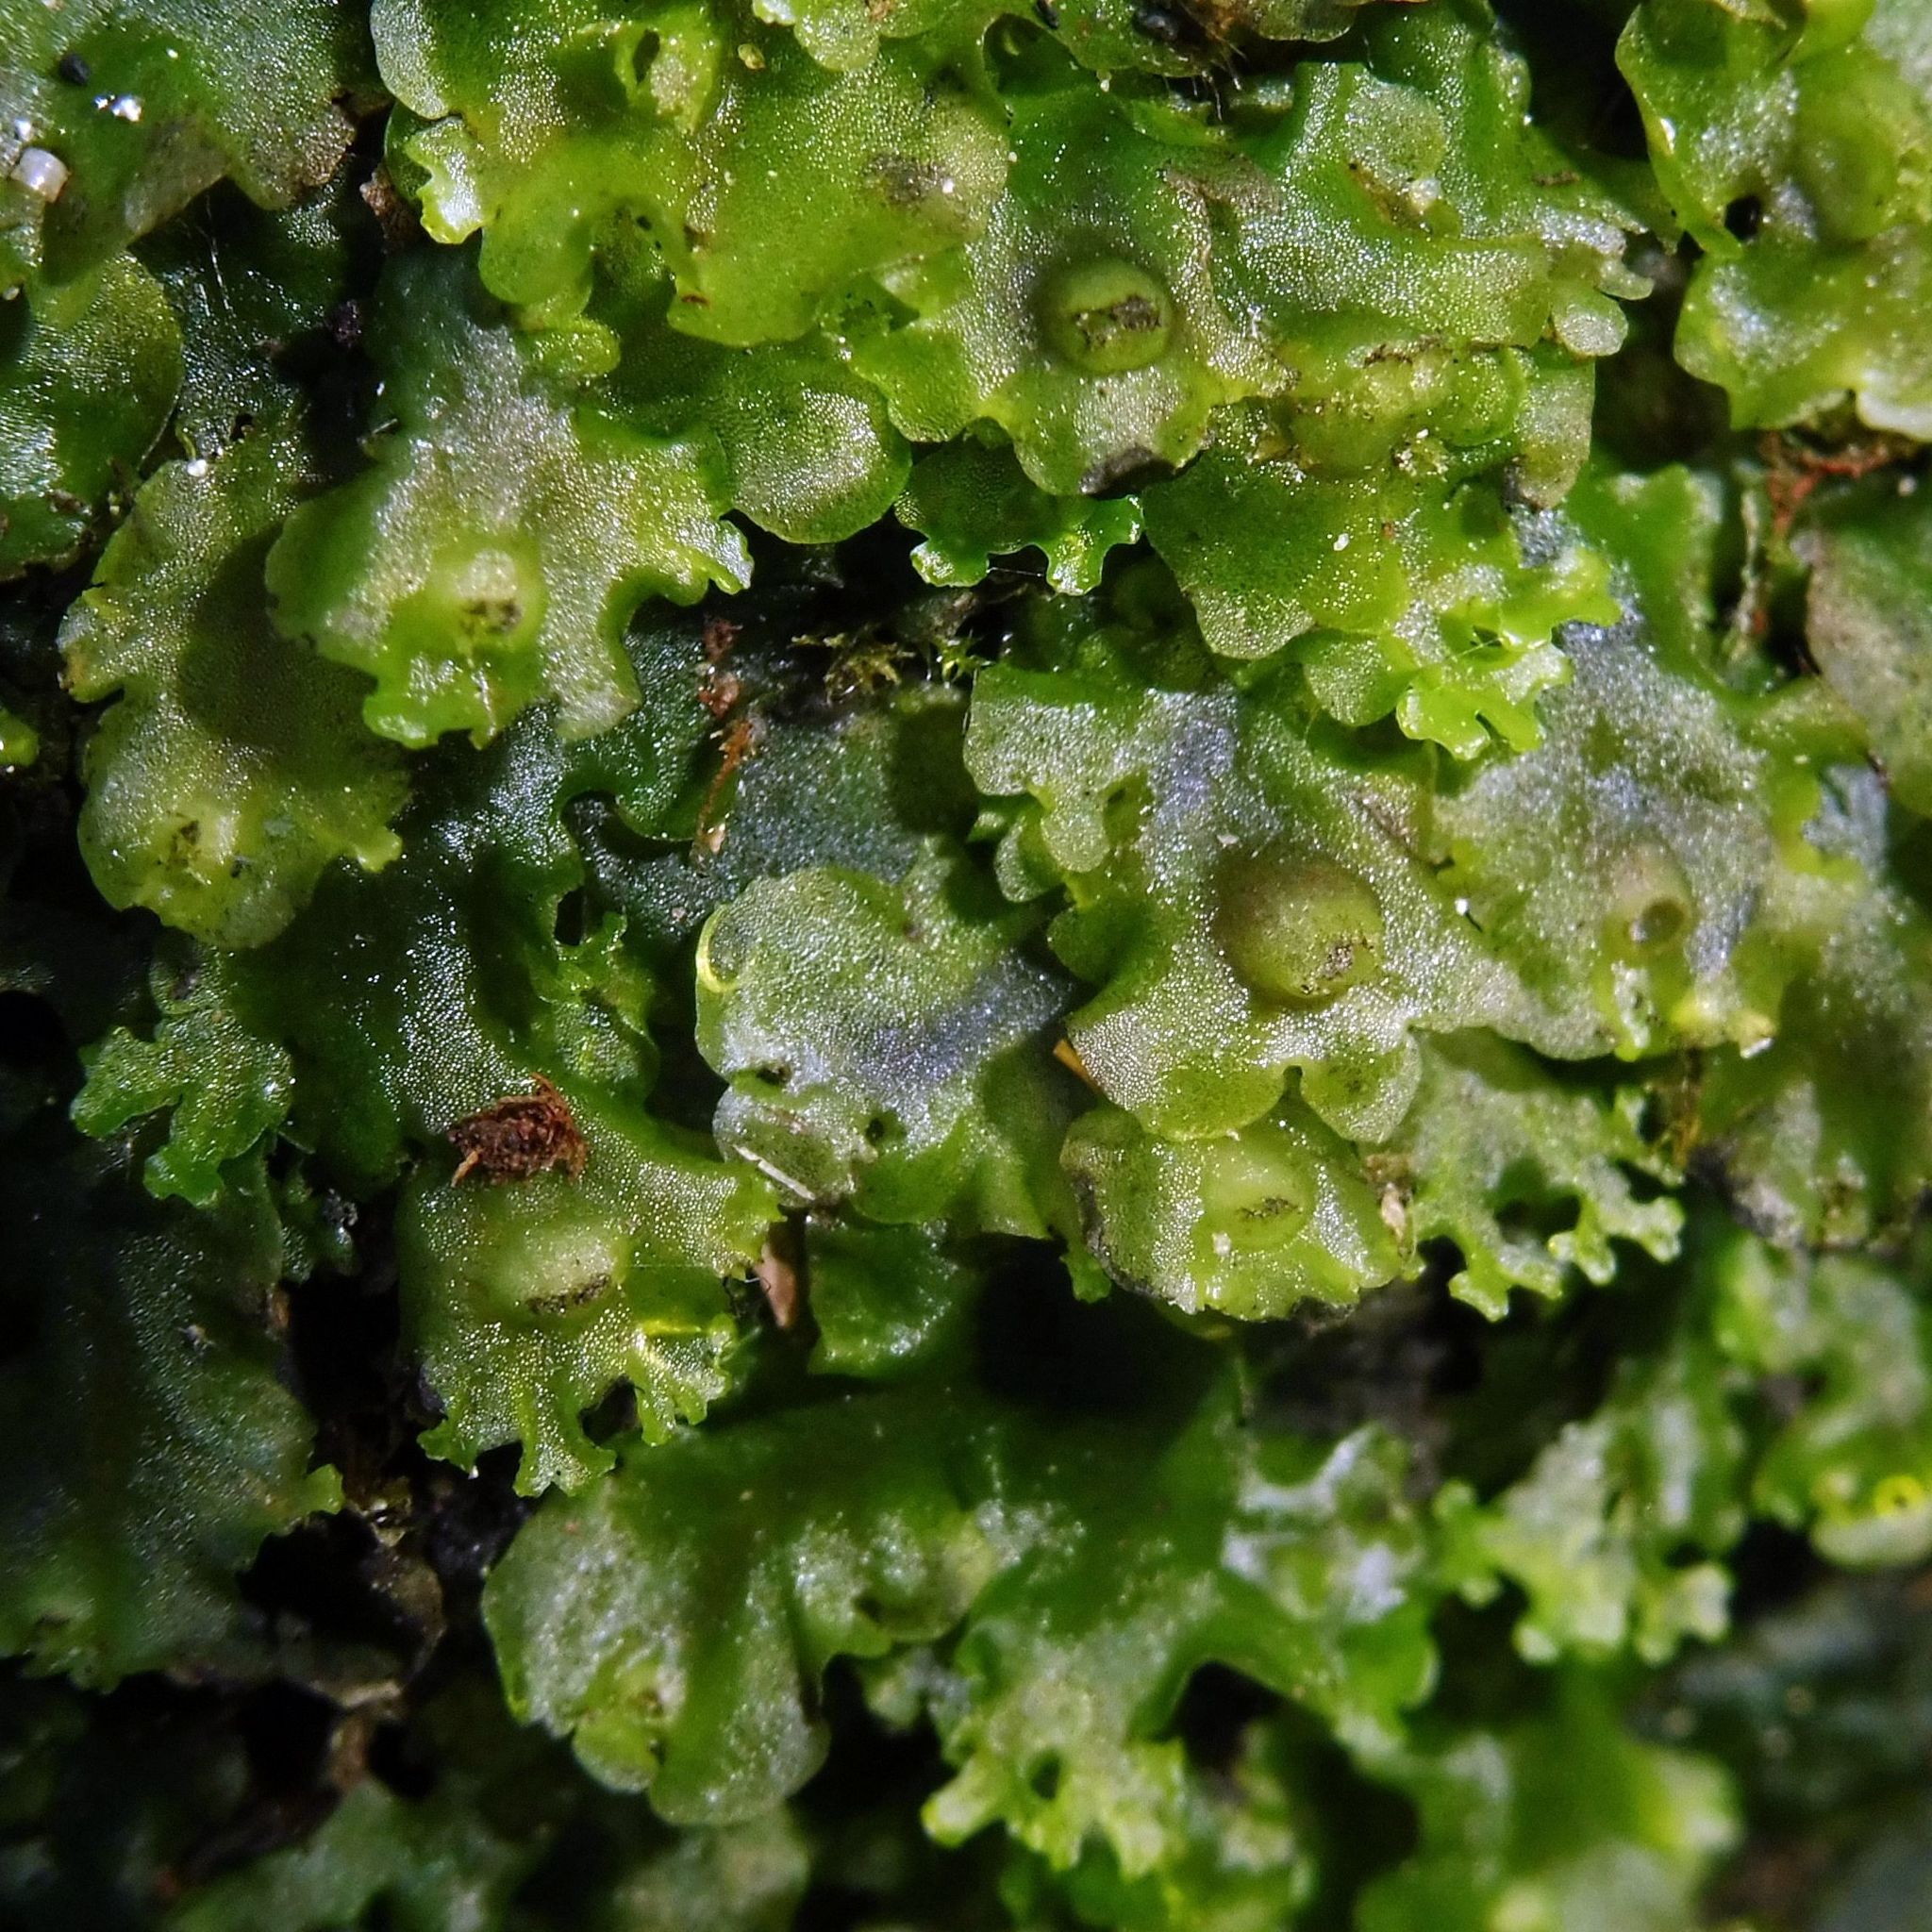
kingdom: Plantae
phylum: Marchantiophyta
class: Jungermanniopsida
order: Pelliales
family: Pelliaceae
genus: Apopellia
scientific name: Apopellia endiviifolia
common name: Endive pellia
